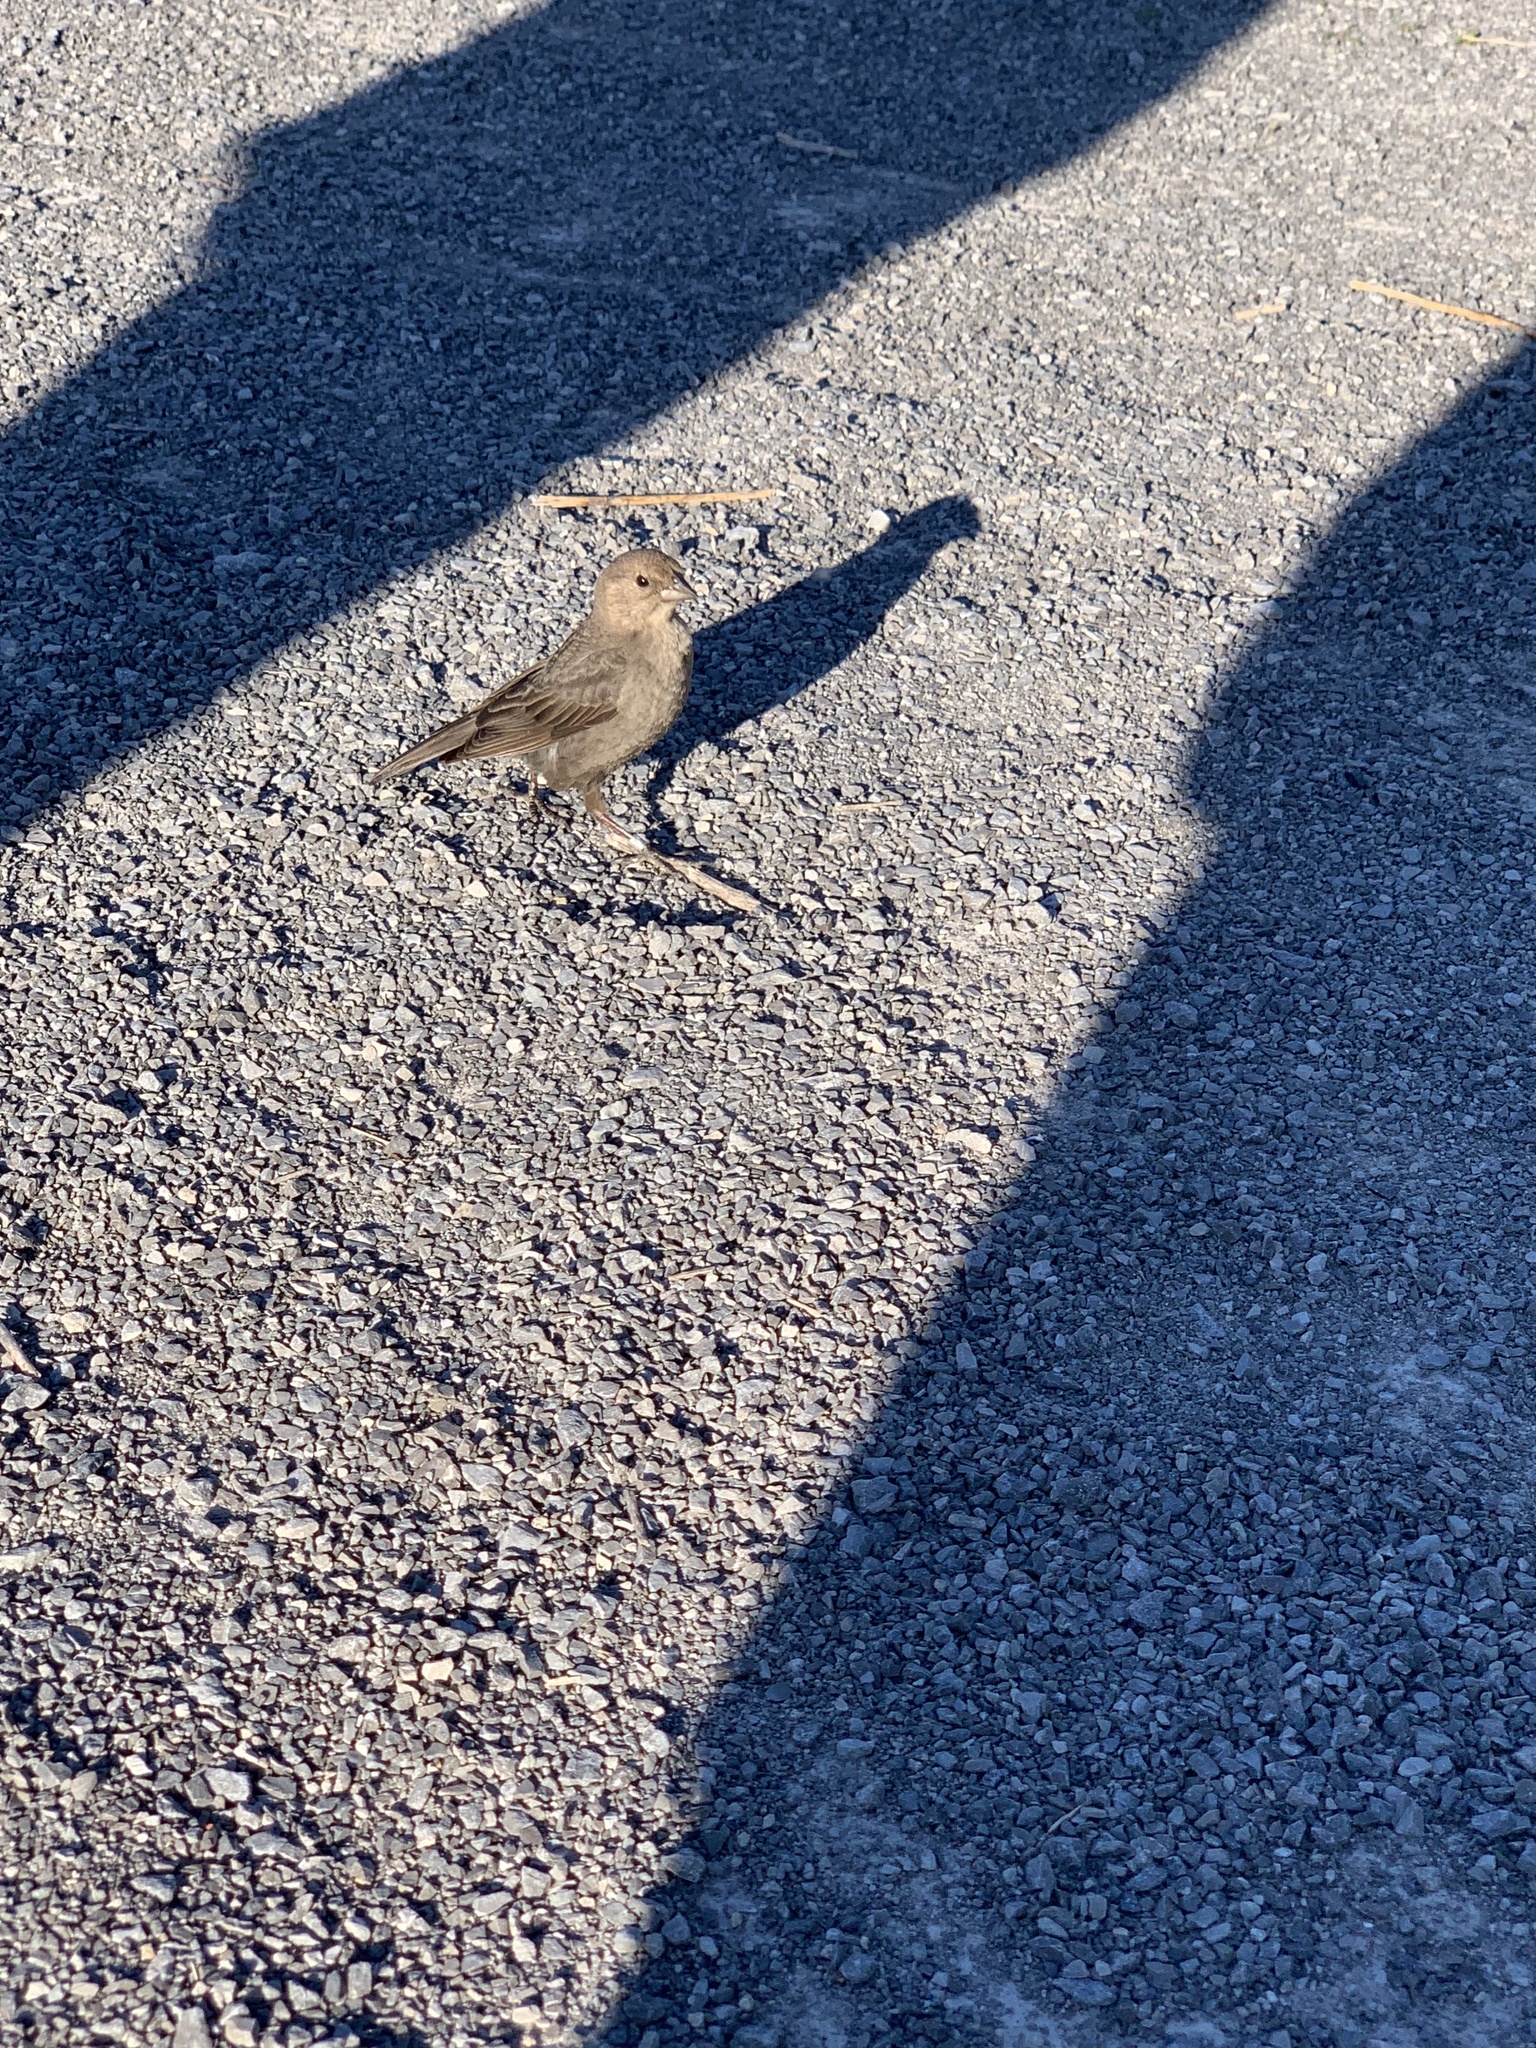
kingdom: Animalia
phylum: Chordata
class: Aves
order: Passeriformes
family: Icteridae
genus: Molothrus
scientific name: Molothrus ater
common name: Brown-headed cowbird
